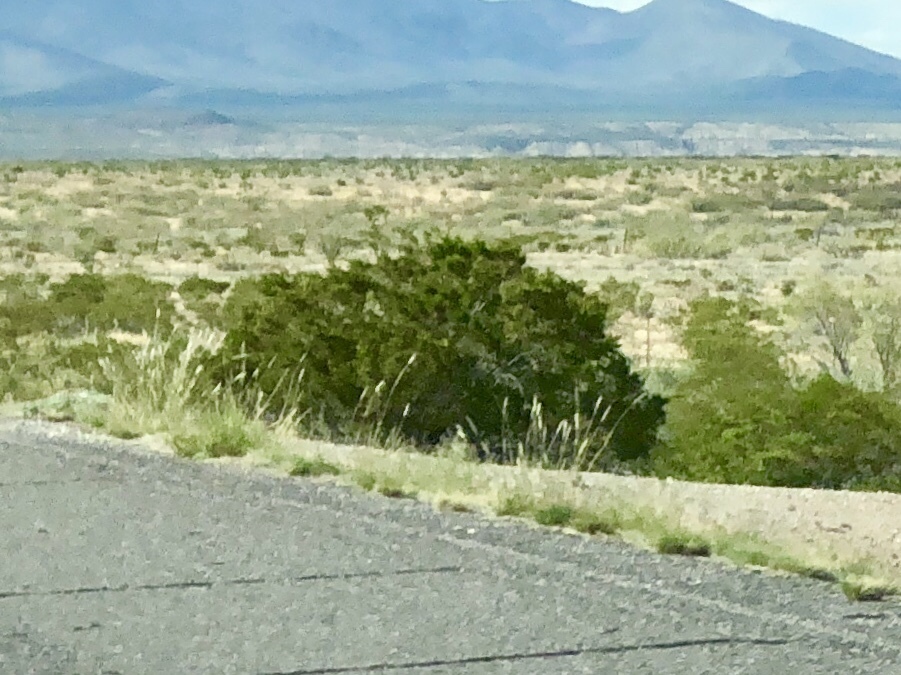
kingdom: Plantae
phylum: Tracheophyta
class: Magnoliopsida
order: Zygophyllales
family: Zygophyllaceae
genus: Larrea
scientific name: Larrea tridentata
